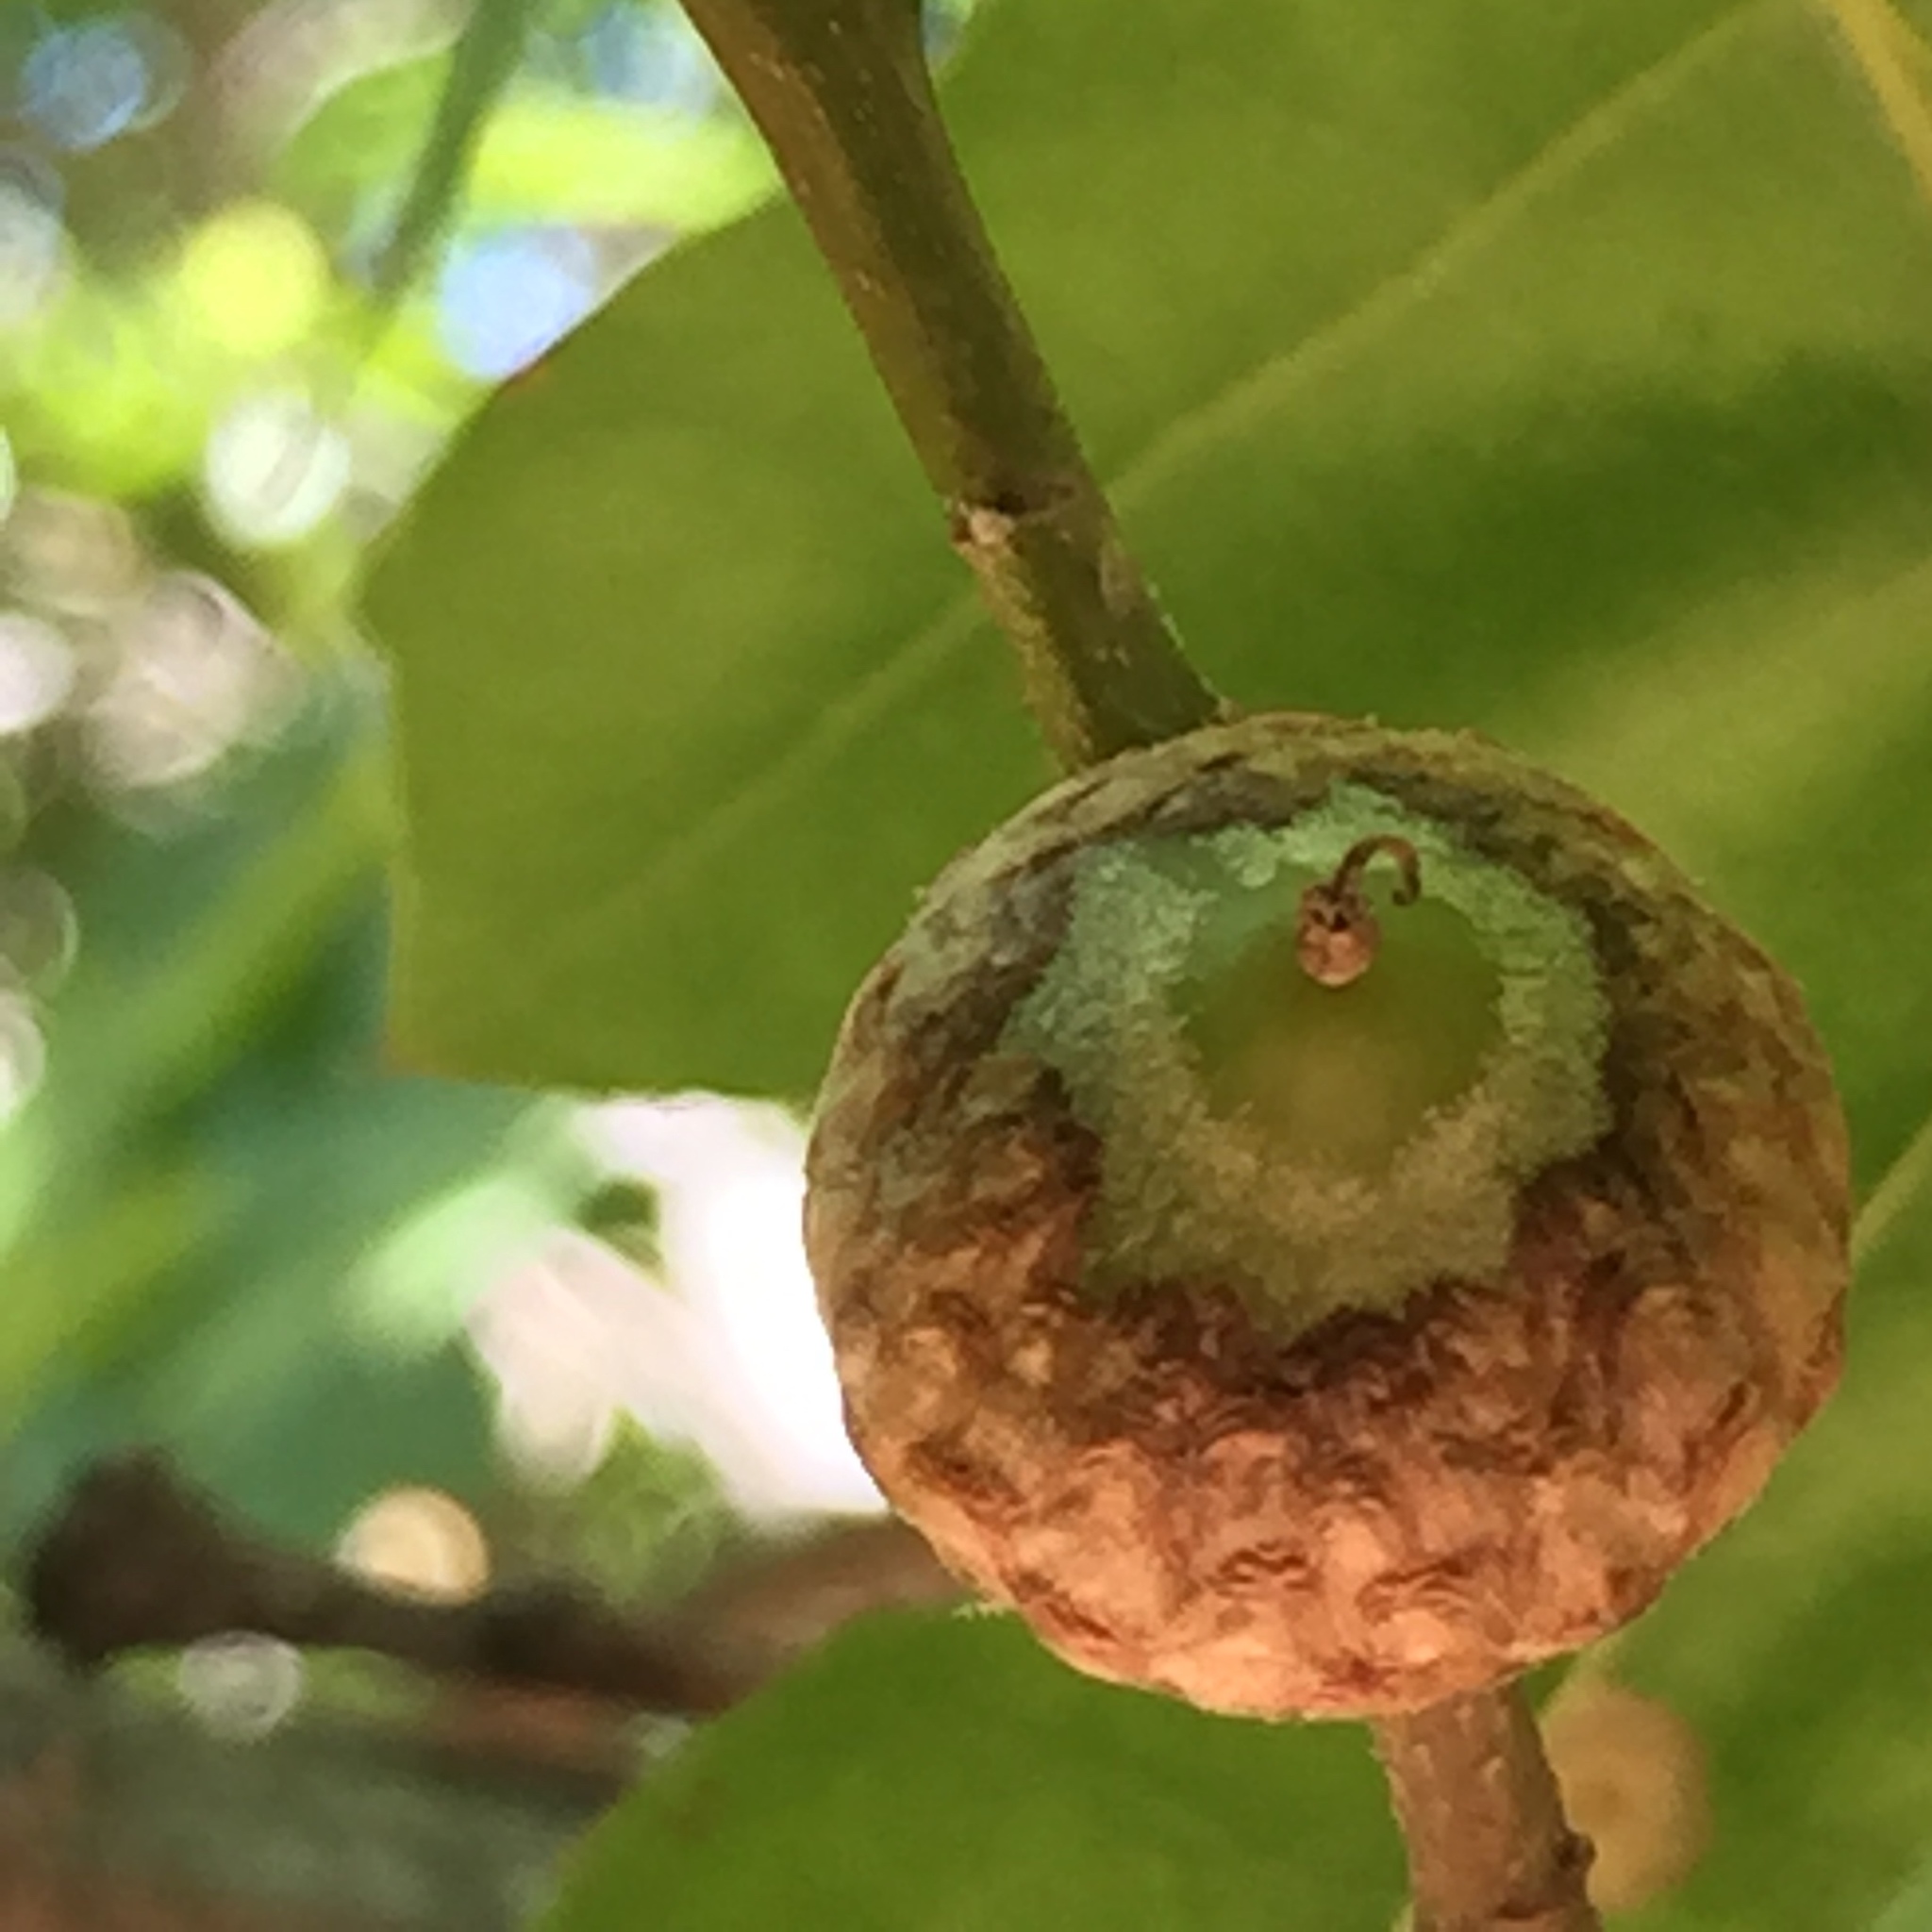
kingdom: Plantae
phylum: Tracheophyta
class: Magnoliopsida
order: Fagales
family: Fagaceae
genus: Quercus
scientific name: Quercus kelloggii
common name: California black oak
